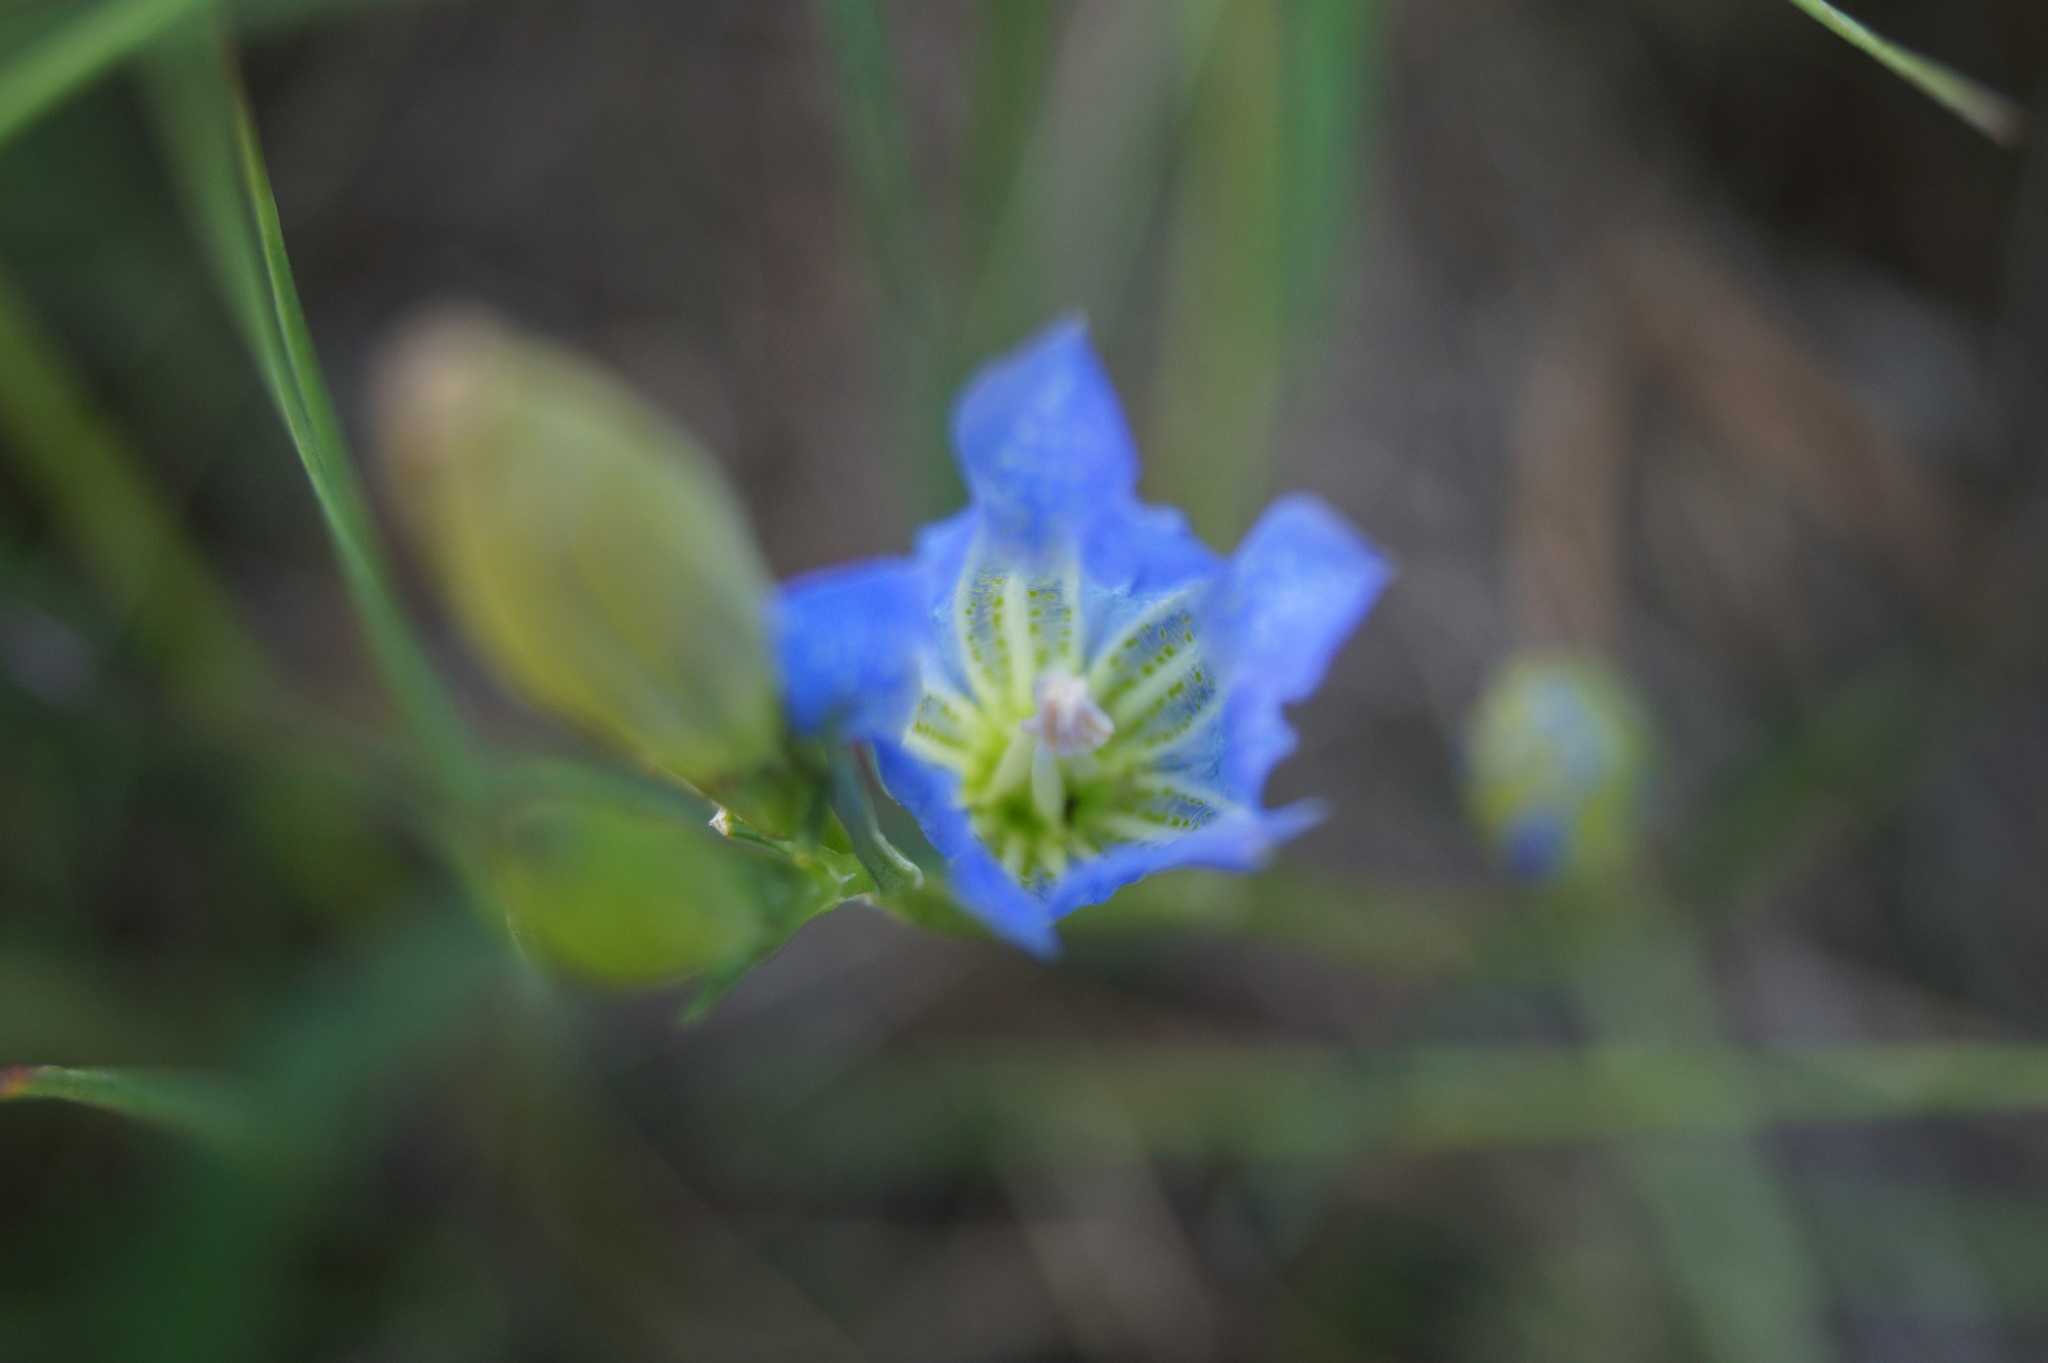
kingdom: Plantae
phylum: Tracheophyta
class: Magnoliopsida
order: Gentianales
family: Gentianaceae
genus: Gentiana
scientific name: Gentiana pneumonanthe
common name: Marsh gentian
